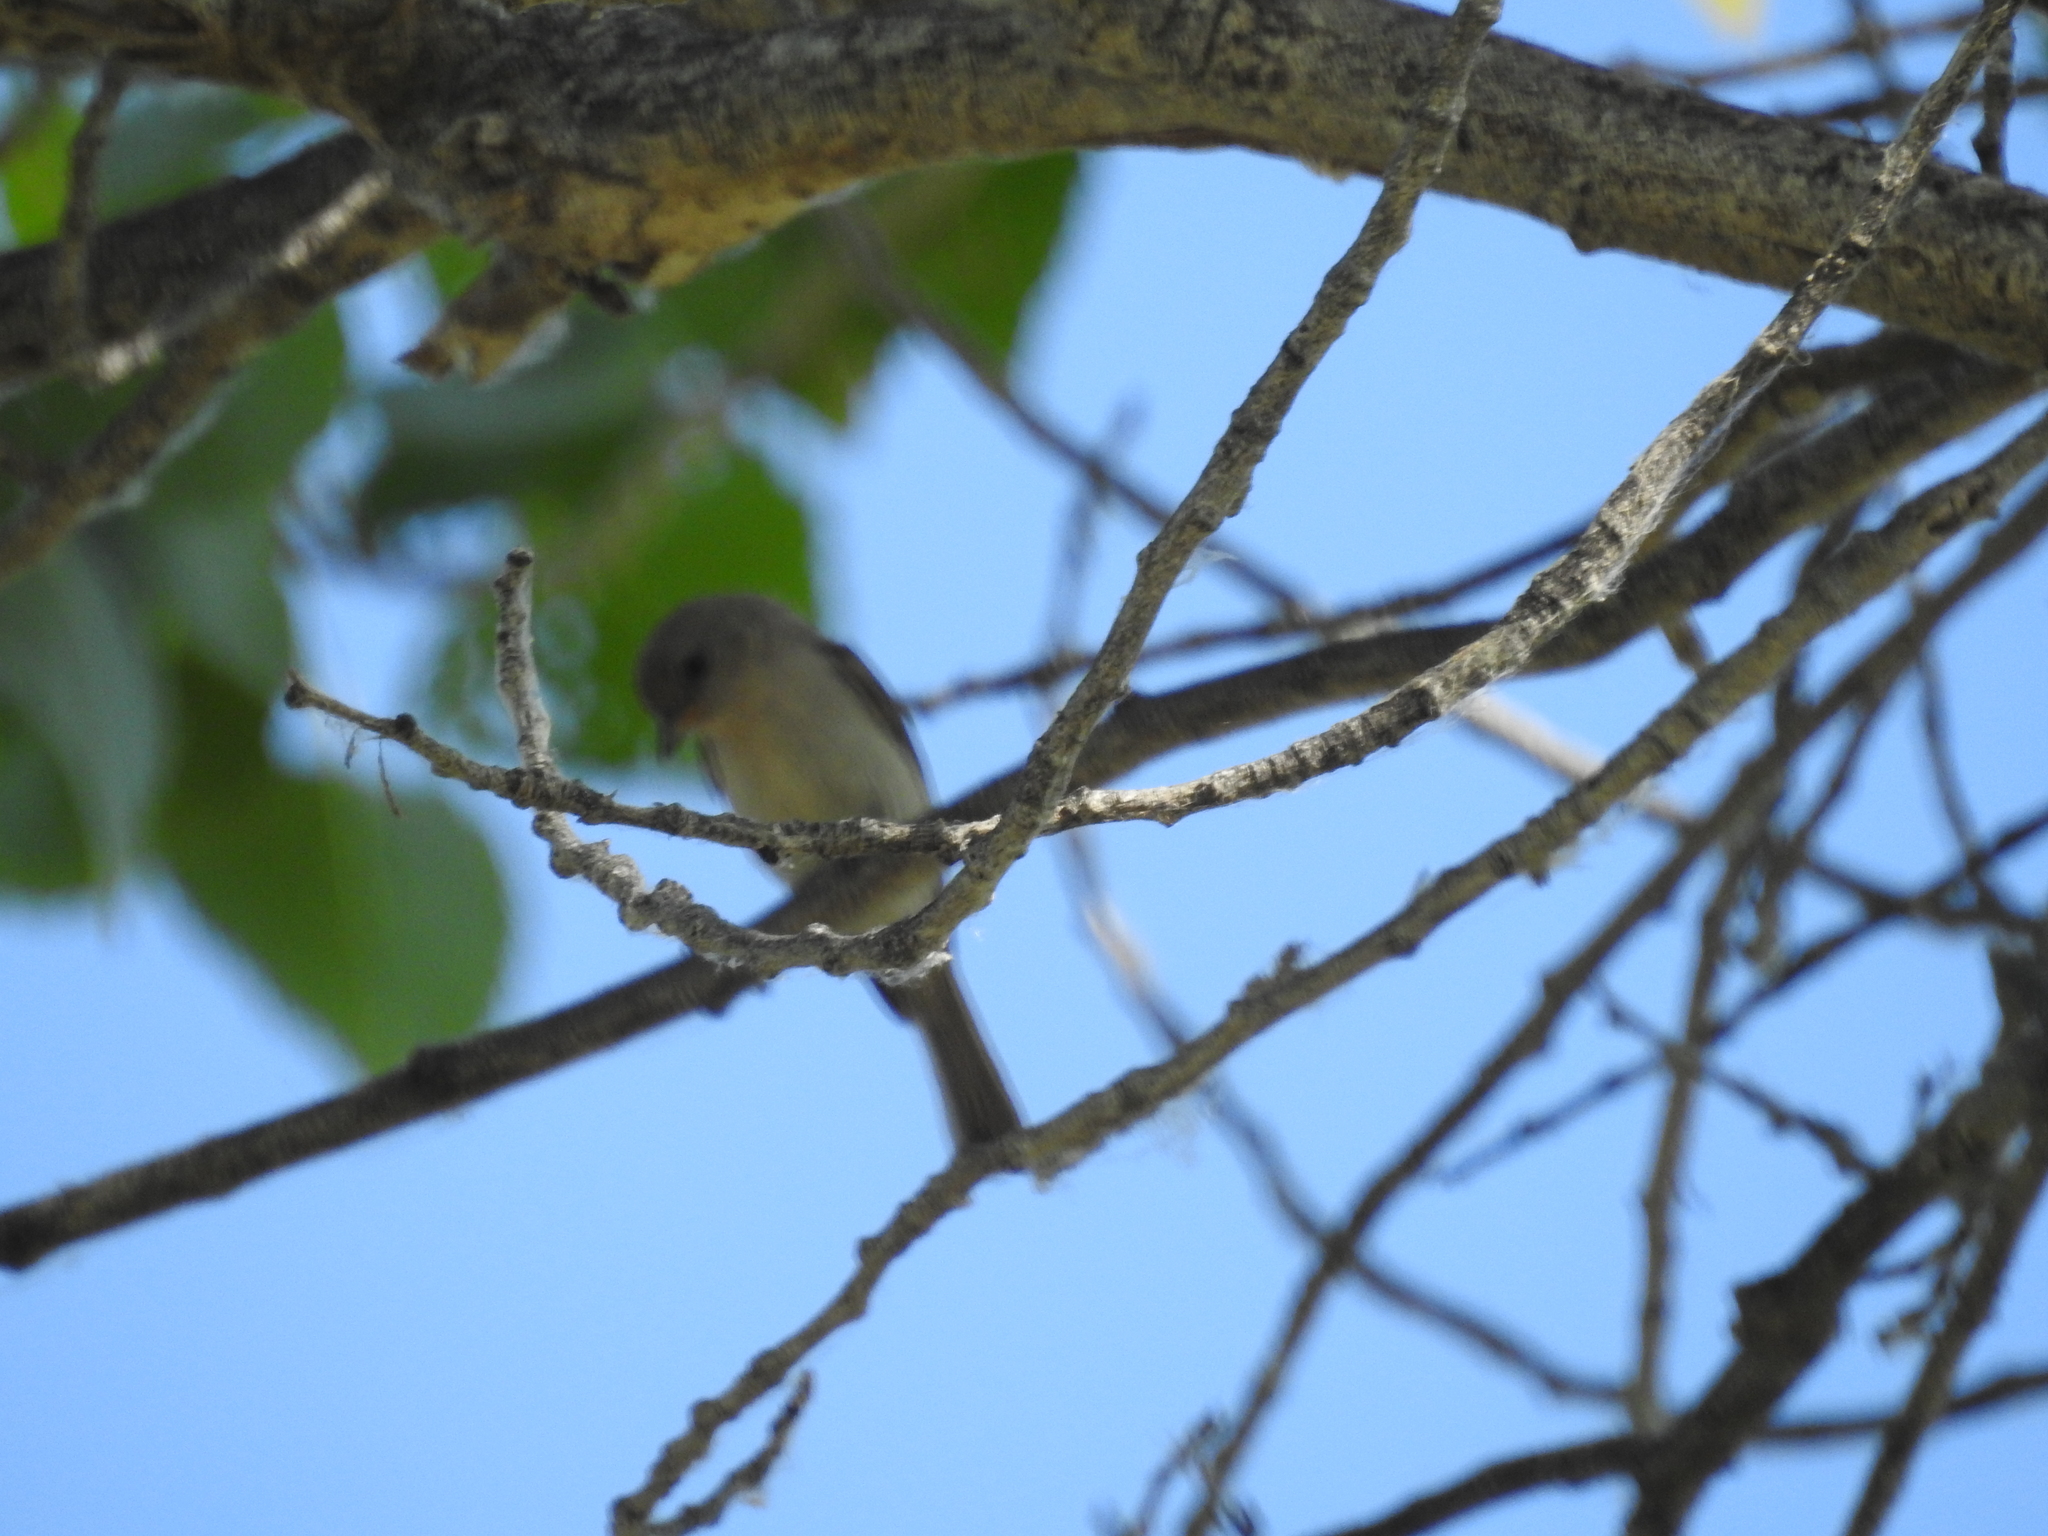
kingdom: Animalia
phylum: Chordata
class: Aves
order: Passeriformes
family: Remizidae
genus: Auriparus
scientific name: Auriparus flaviceps
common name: Verdin
